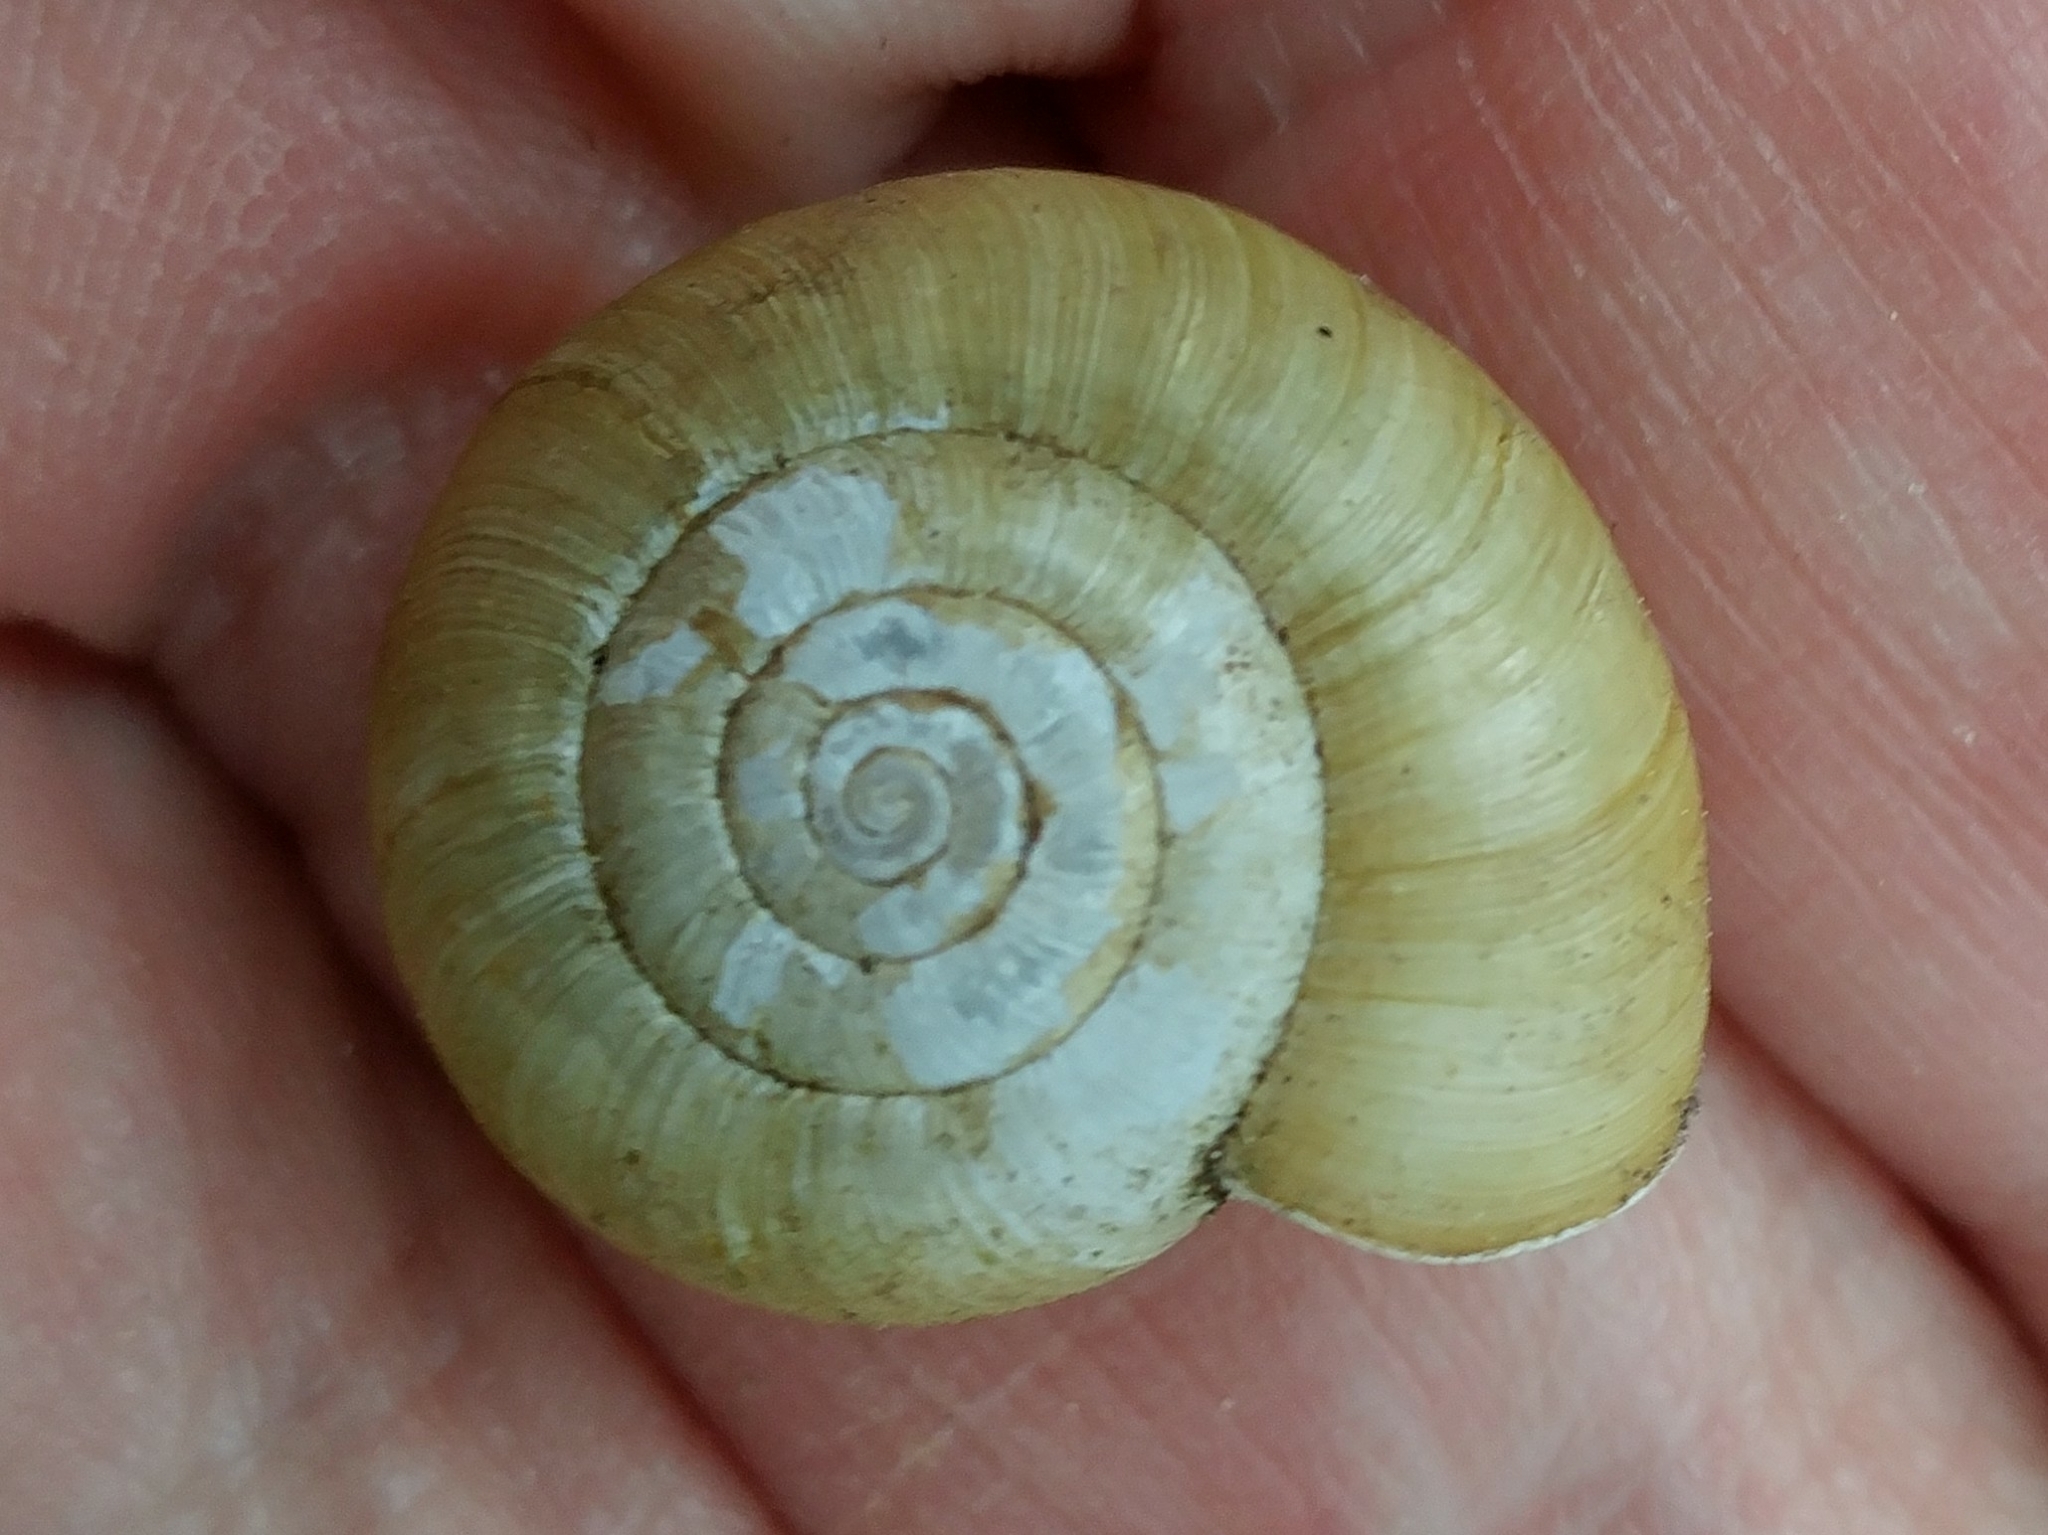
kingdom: Animalia
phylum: Mollusca
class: Gastropoda
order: Stylommatophora
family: Haplotrematidae
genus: Haplotrema
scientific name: Haplotrema minimum
